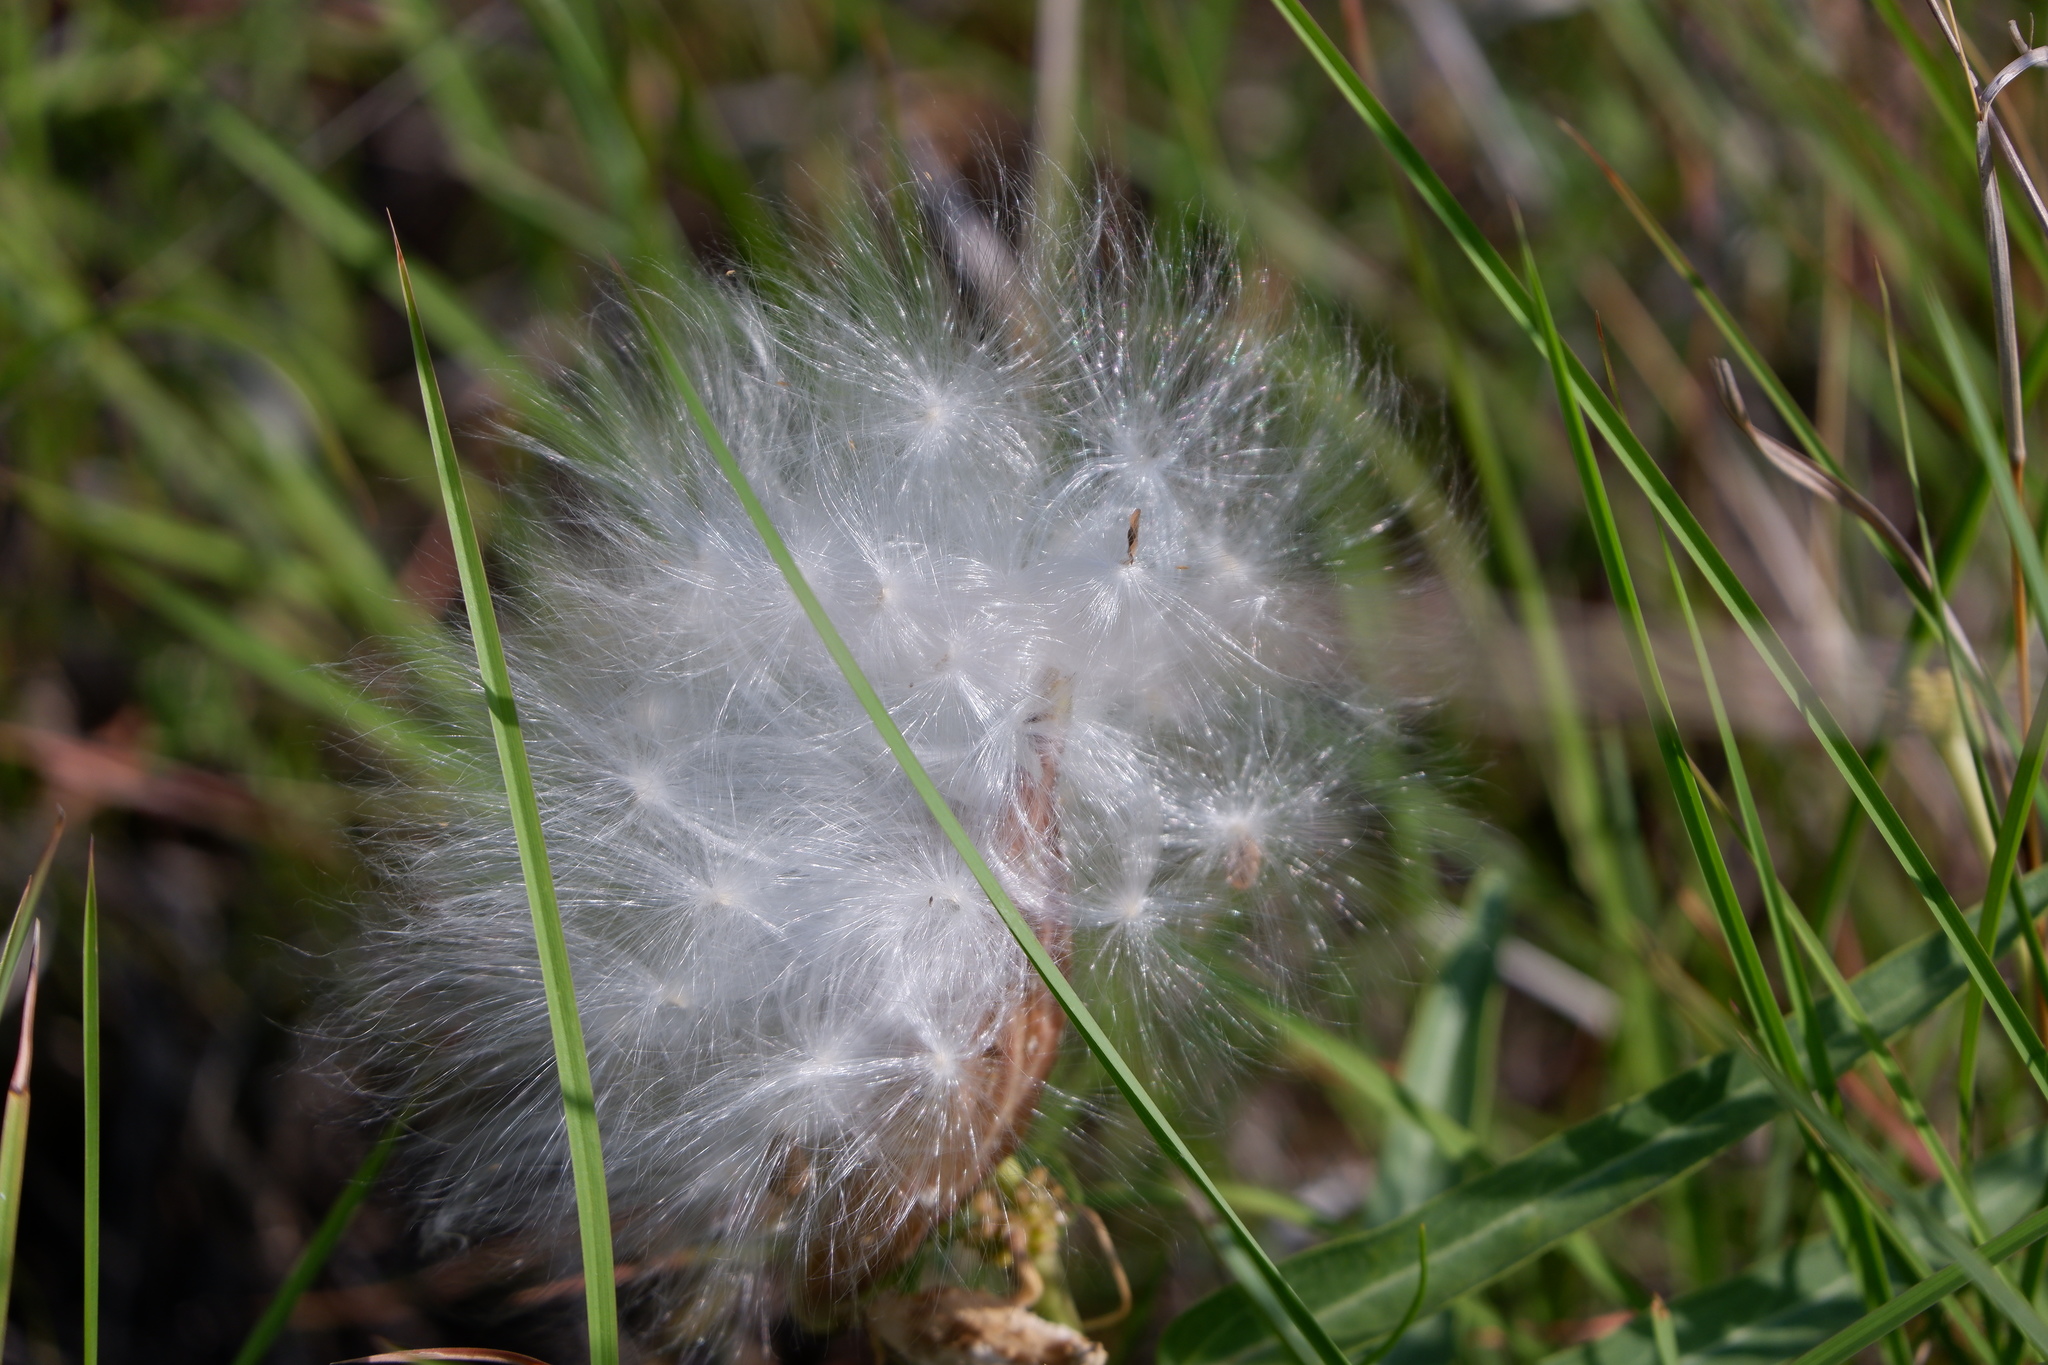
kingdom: Plantae
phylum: Tracheophyta
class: Magnoliopsida
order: Gentianales
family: Apocynaceae
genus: Asclepias
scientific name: Asclepias asperula
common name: Antelope horns
